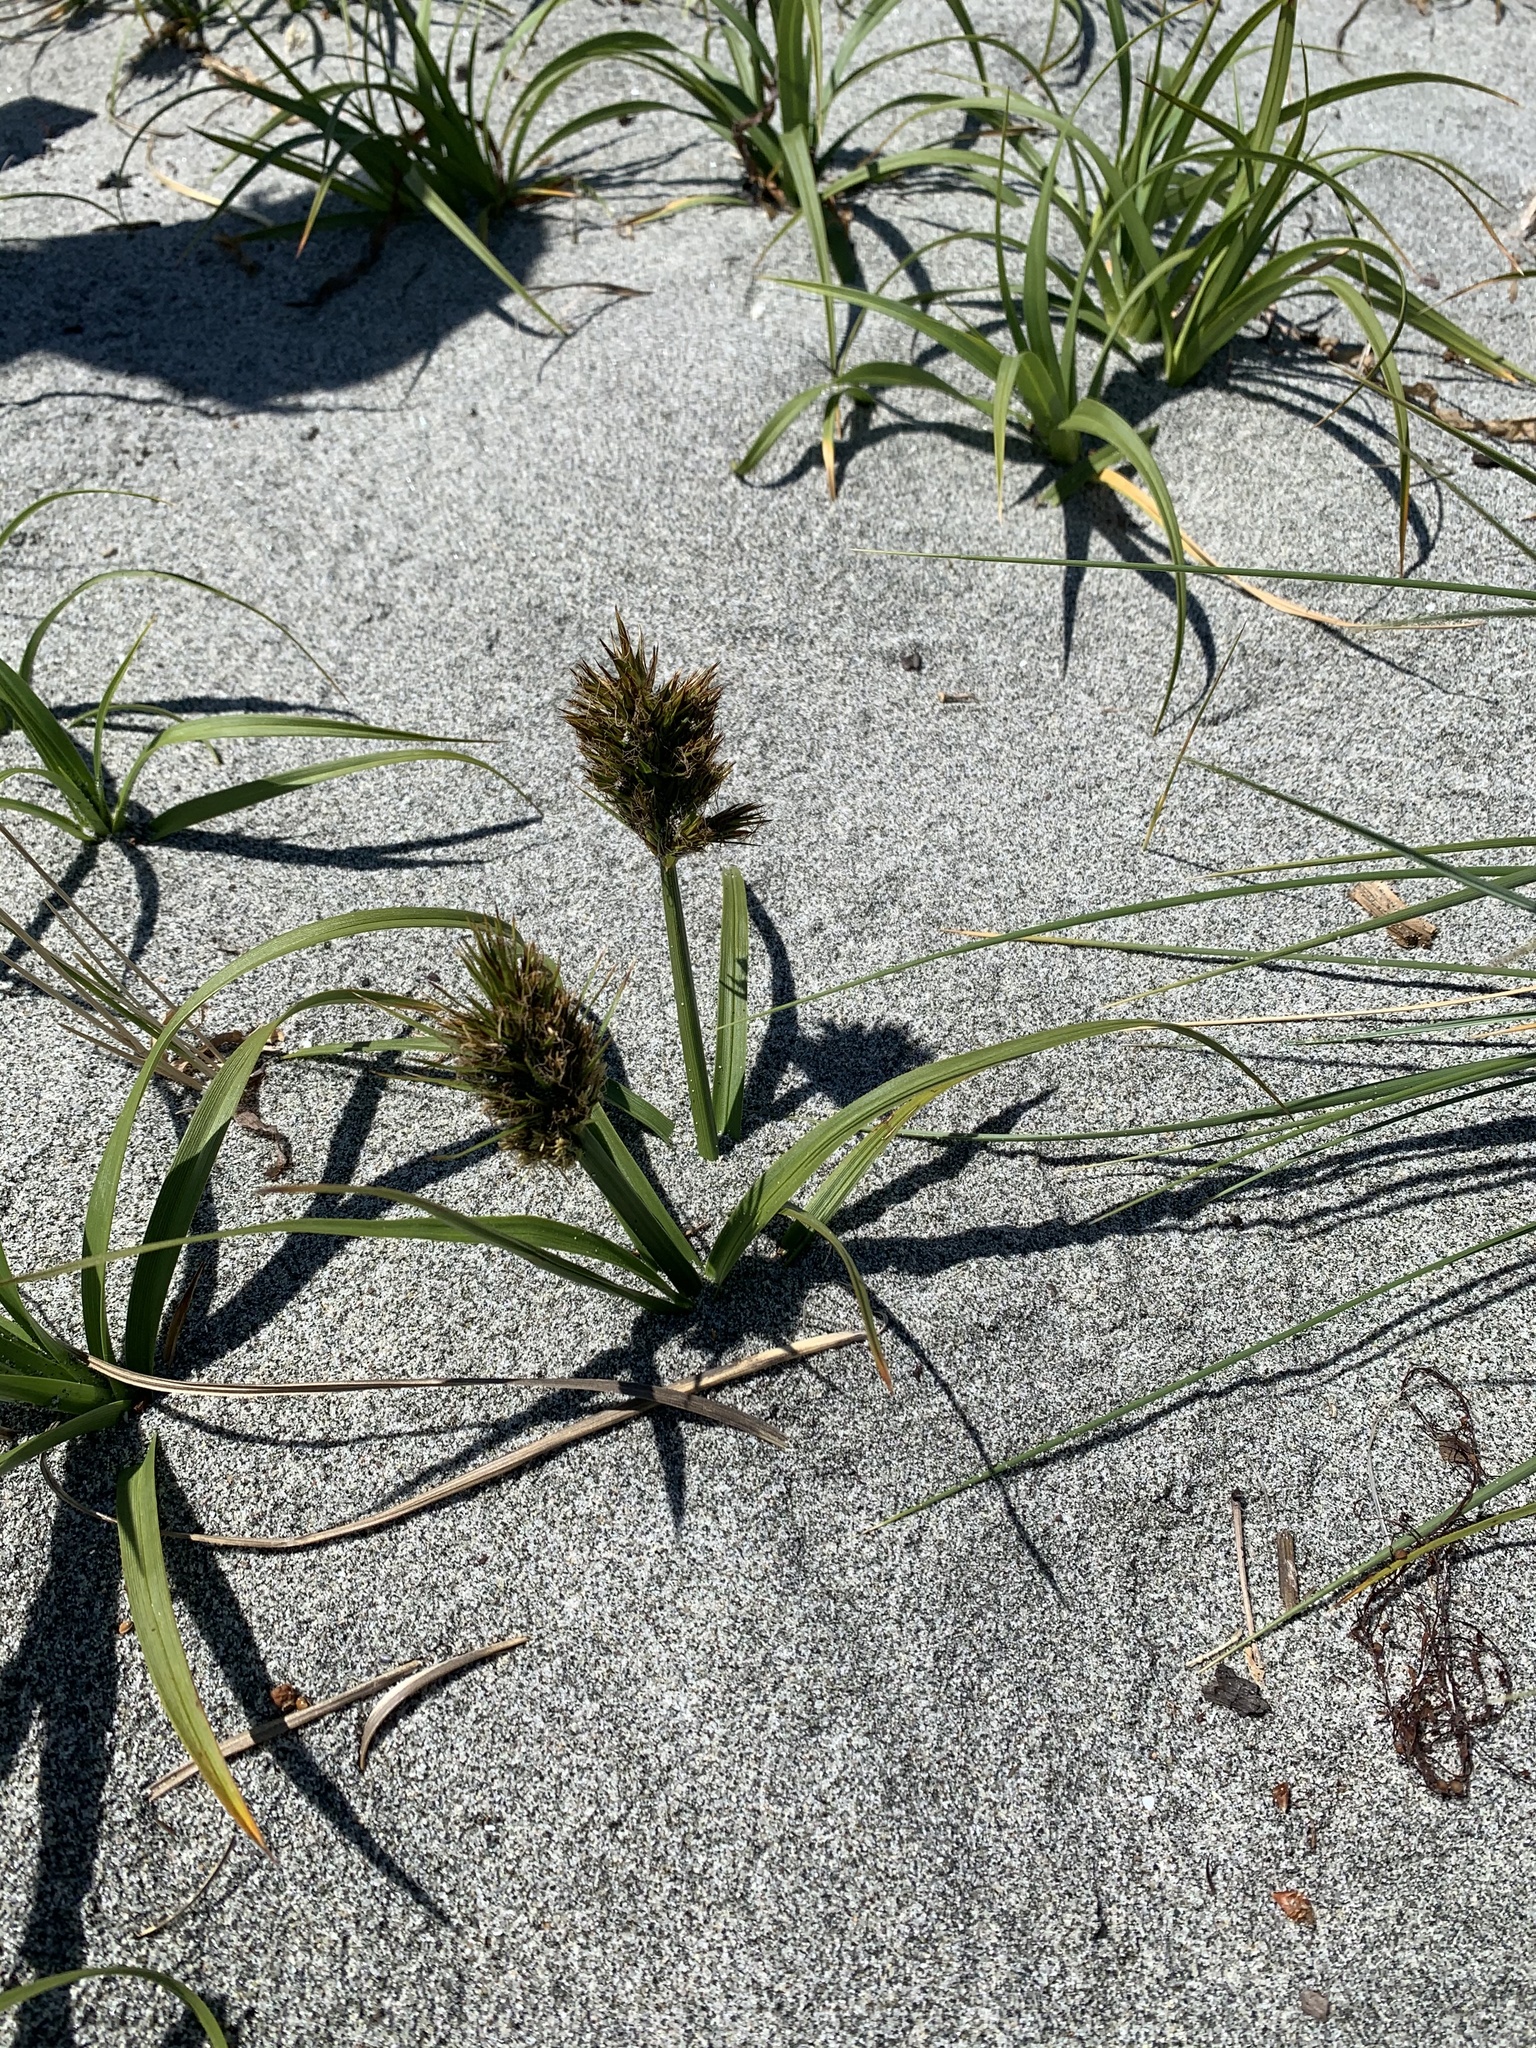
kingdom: Plantae
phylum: Tracheophyta
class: Liliopsida
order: Poales
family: Cyperaceae
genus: Carex
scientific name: Carex macrocephala
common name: Large-head sedge
